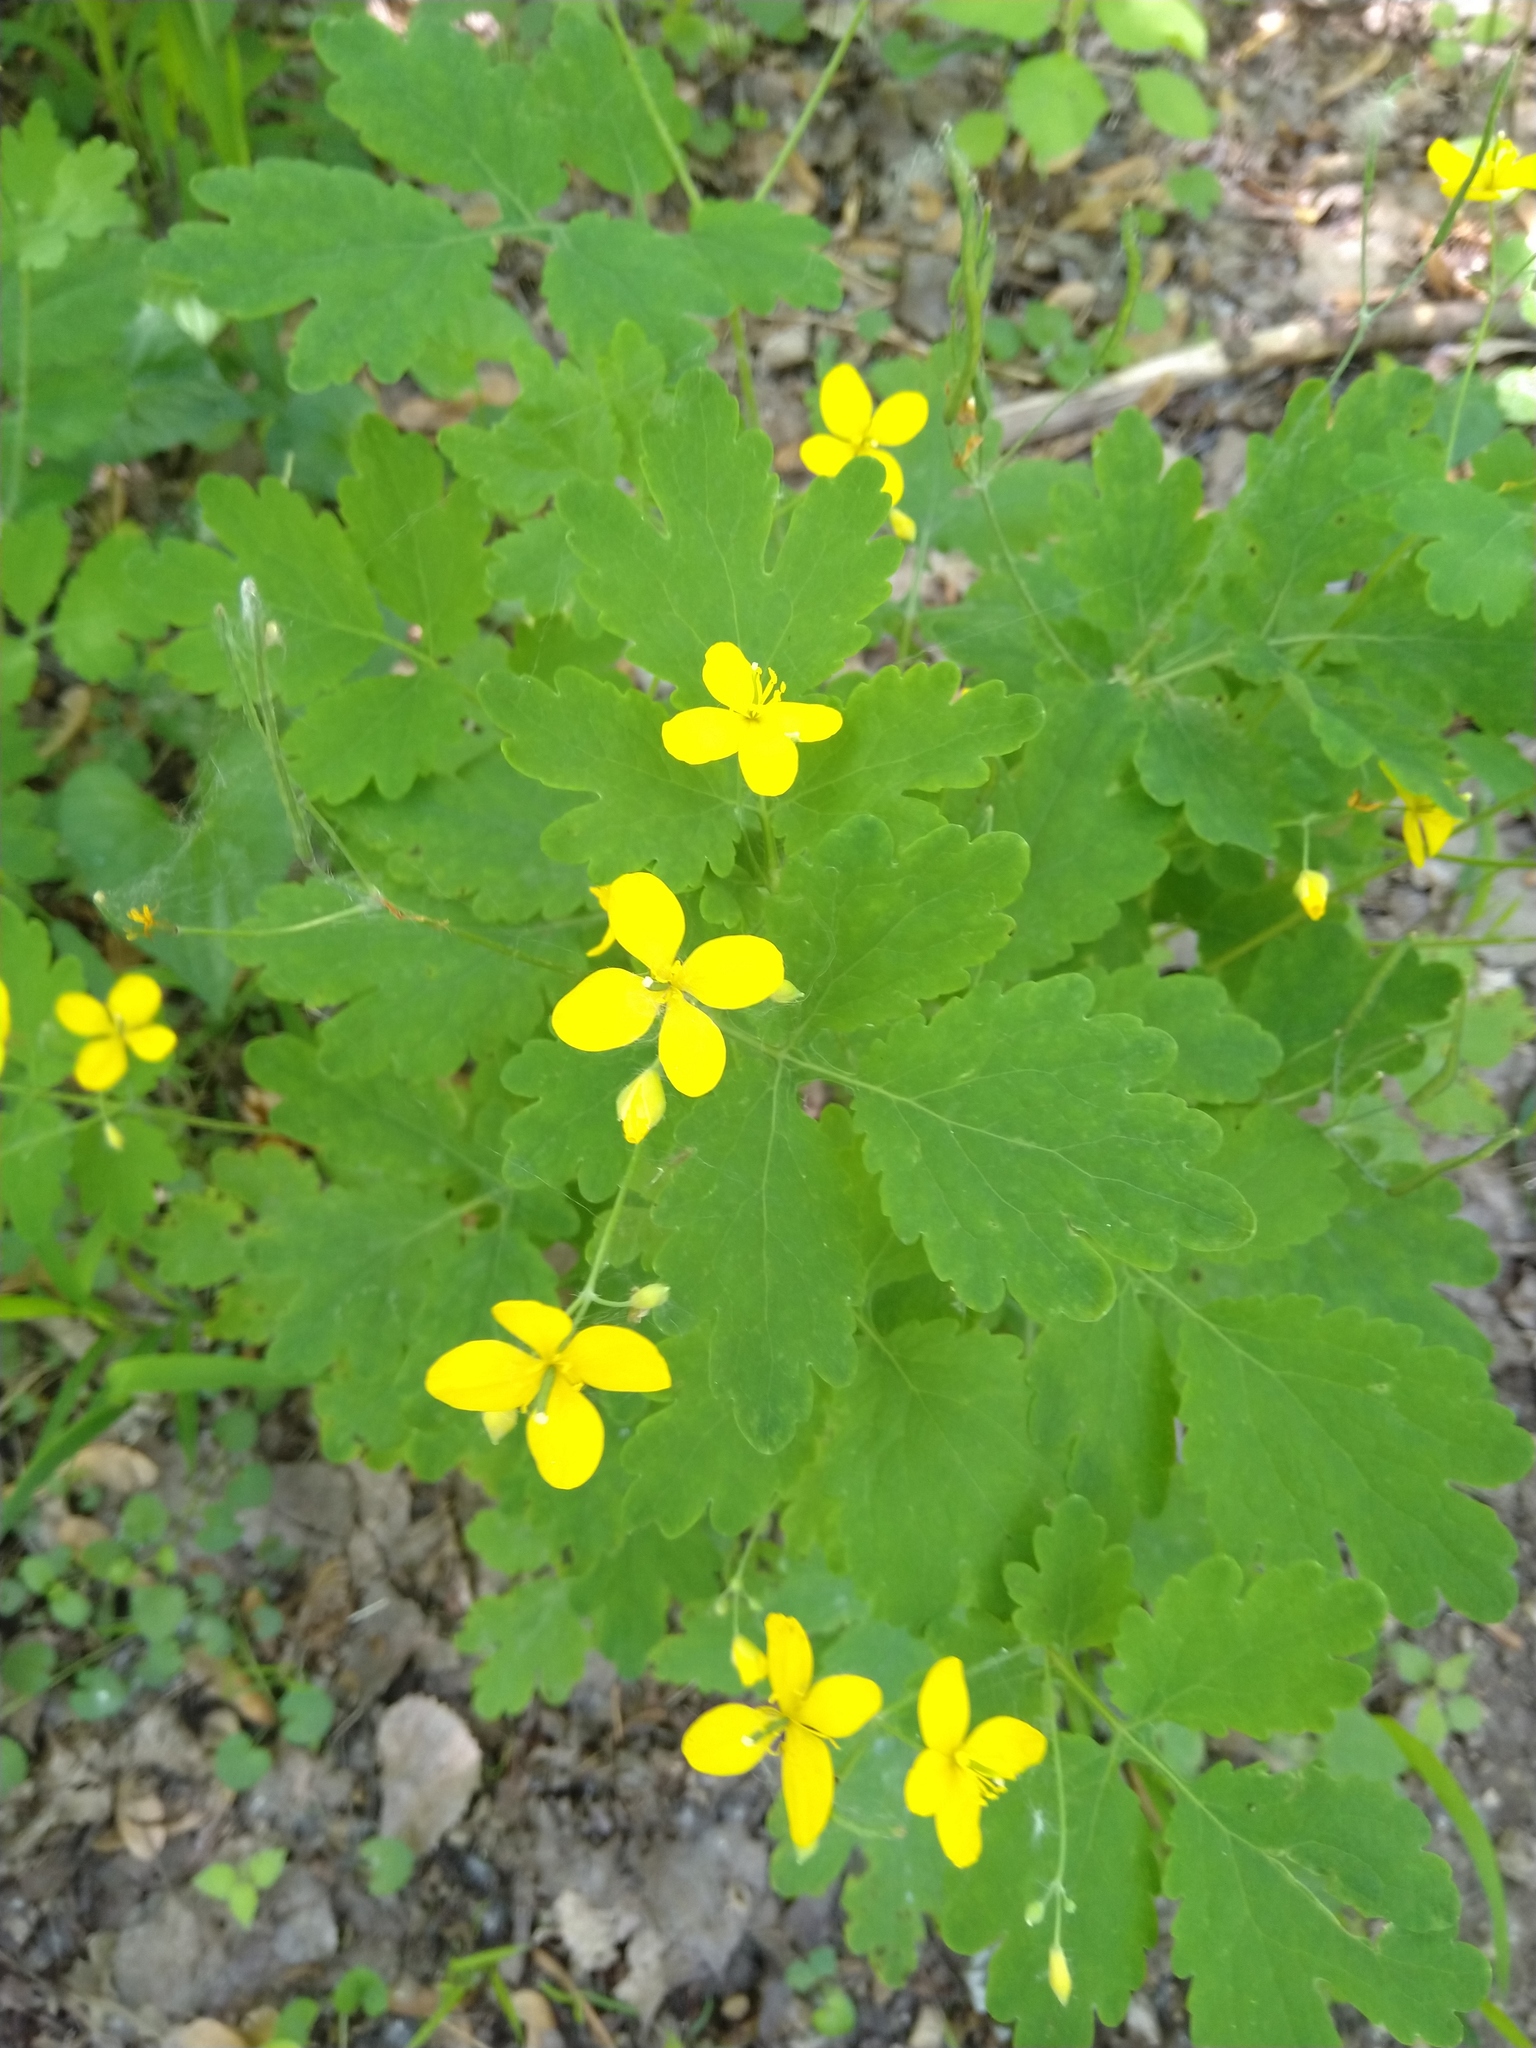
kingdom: Plantae
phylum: Tracheophyta
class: Magnoliopsida
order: Ranunculales
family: Papaveraceae
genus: Chelidonium
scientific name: Chelidonium majus
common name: Greater celandine
